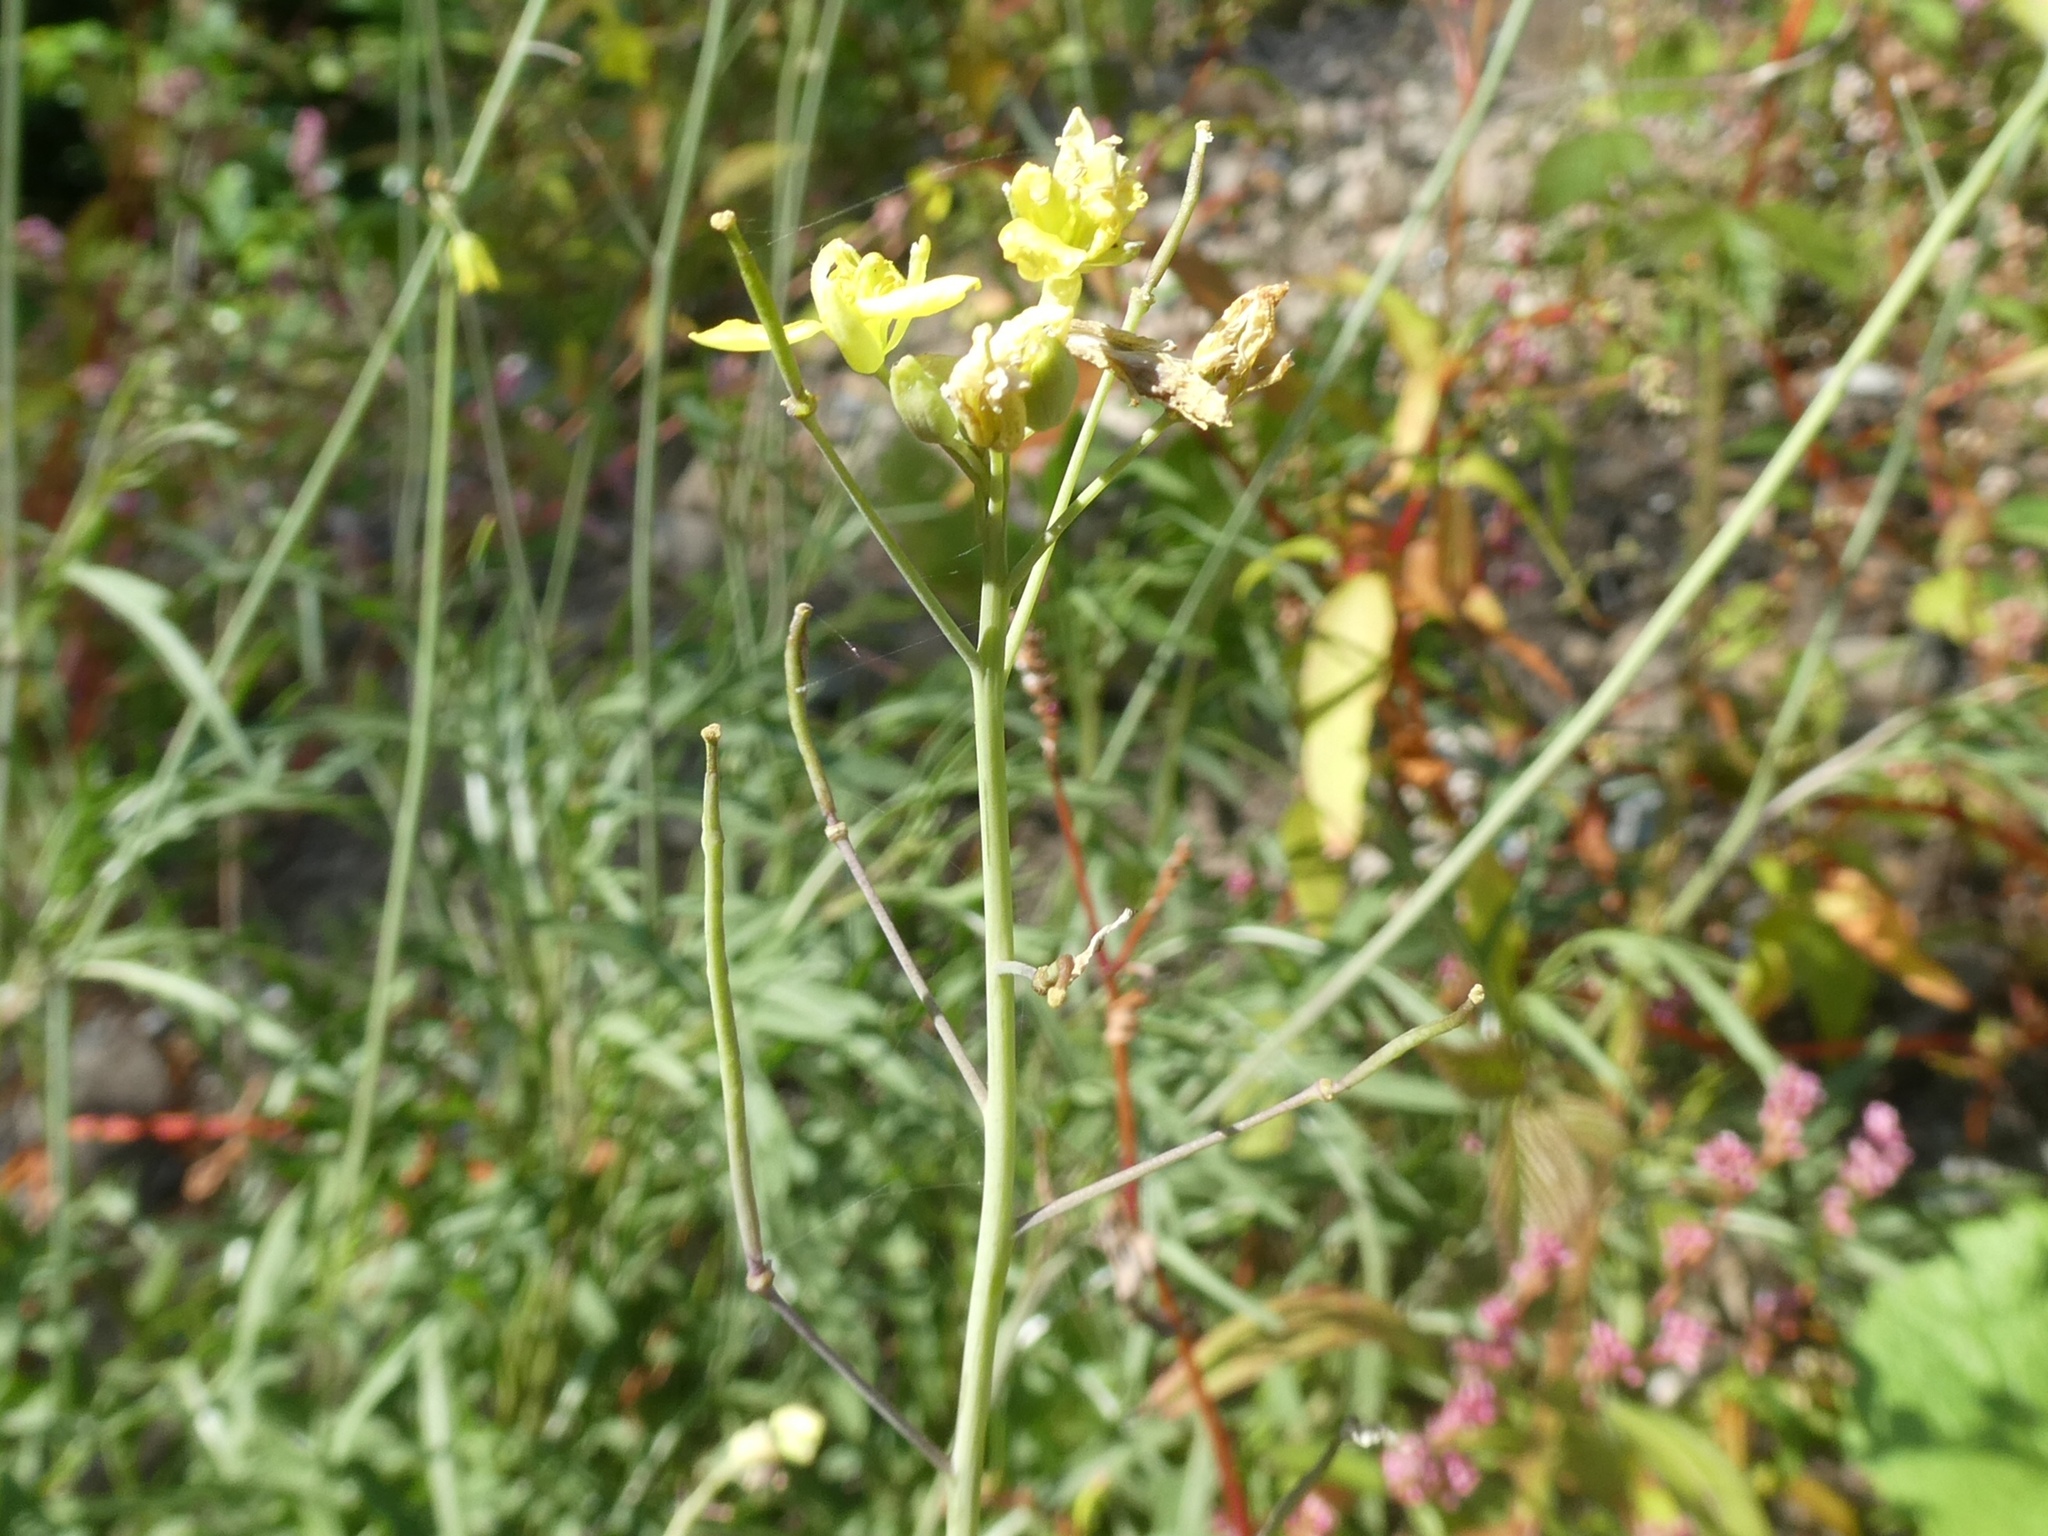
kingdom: Plantae
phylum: Tracheophyta
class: Magnoliopsida
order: Brassicales
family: Brassicaceae
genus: Diplotaxis
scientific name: Diplotaxis tenuifolia
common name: Perennial wall-rocket
